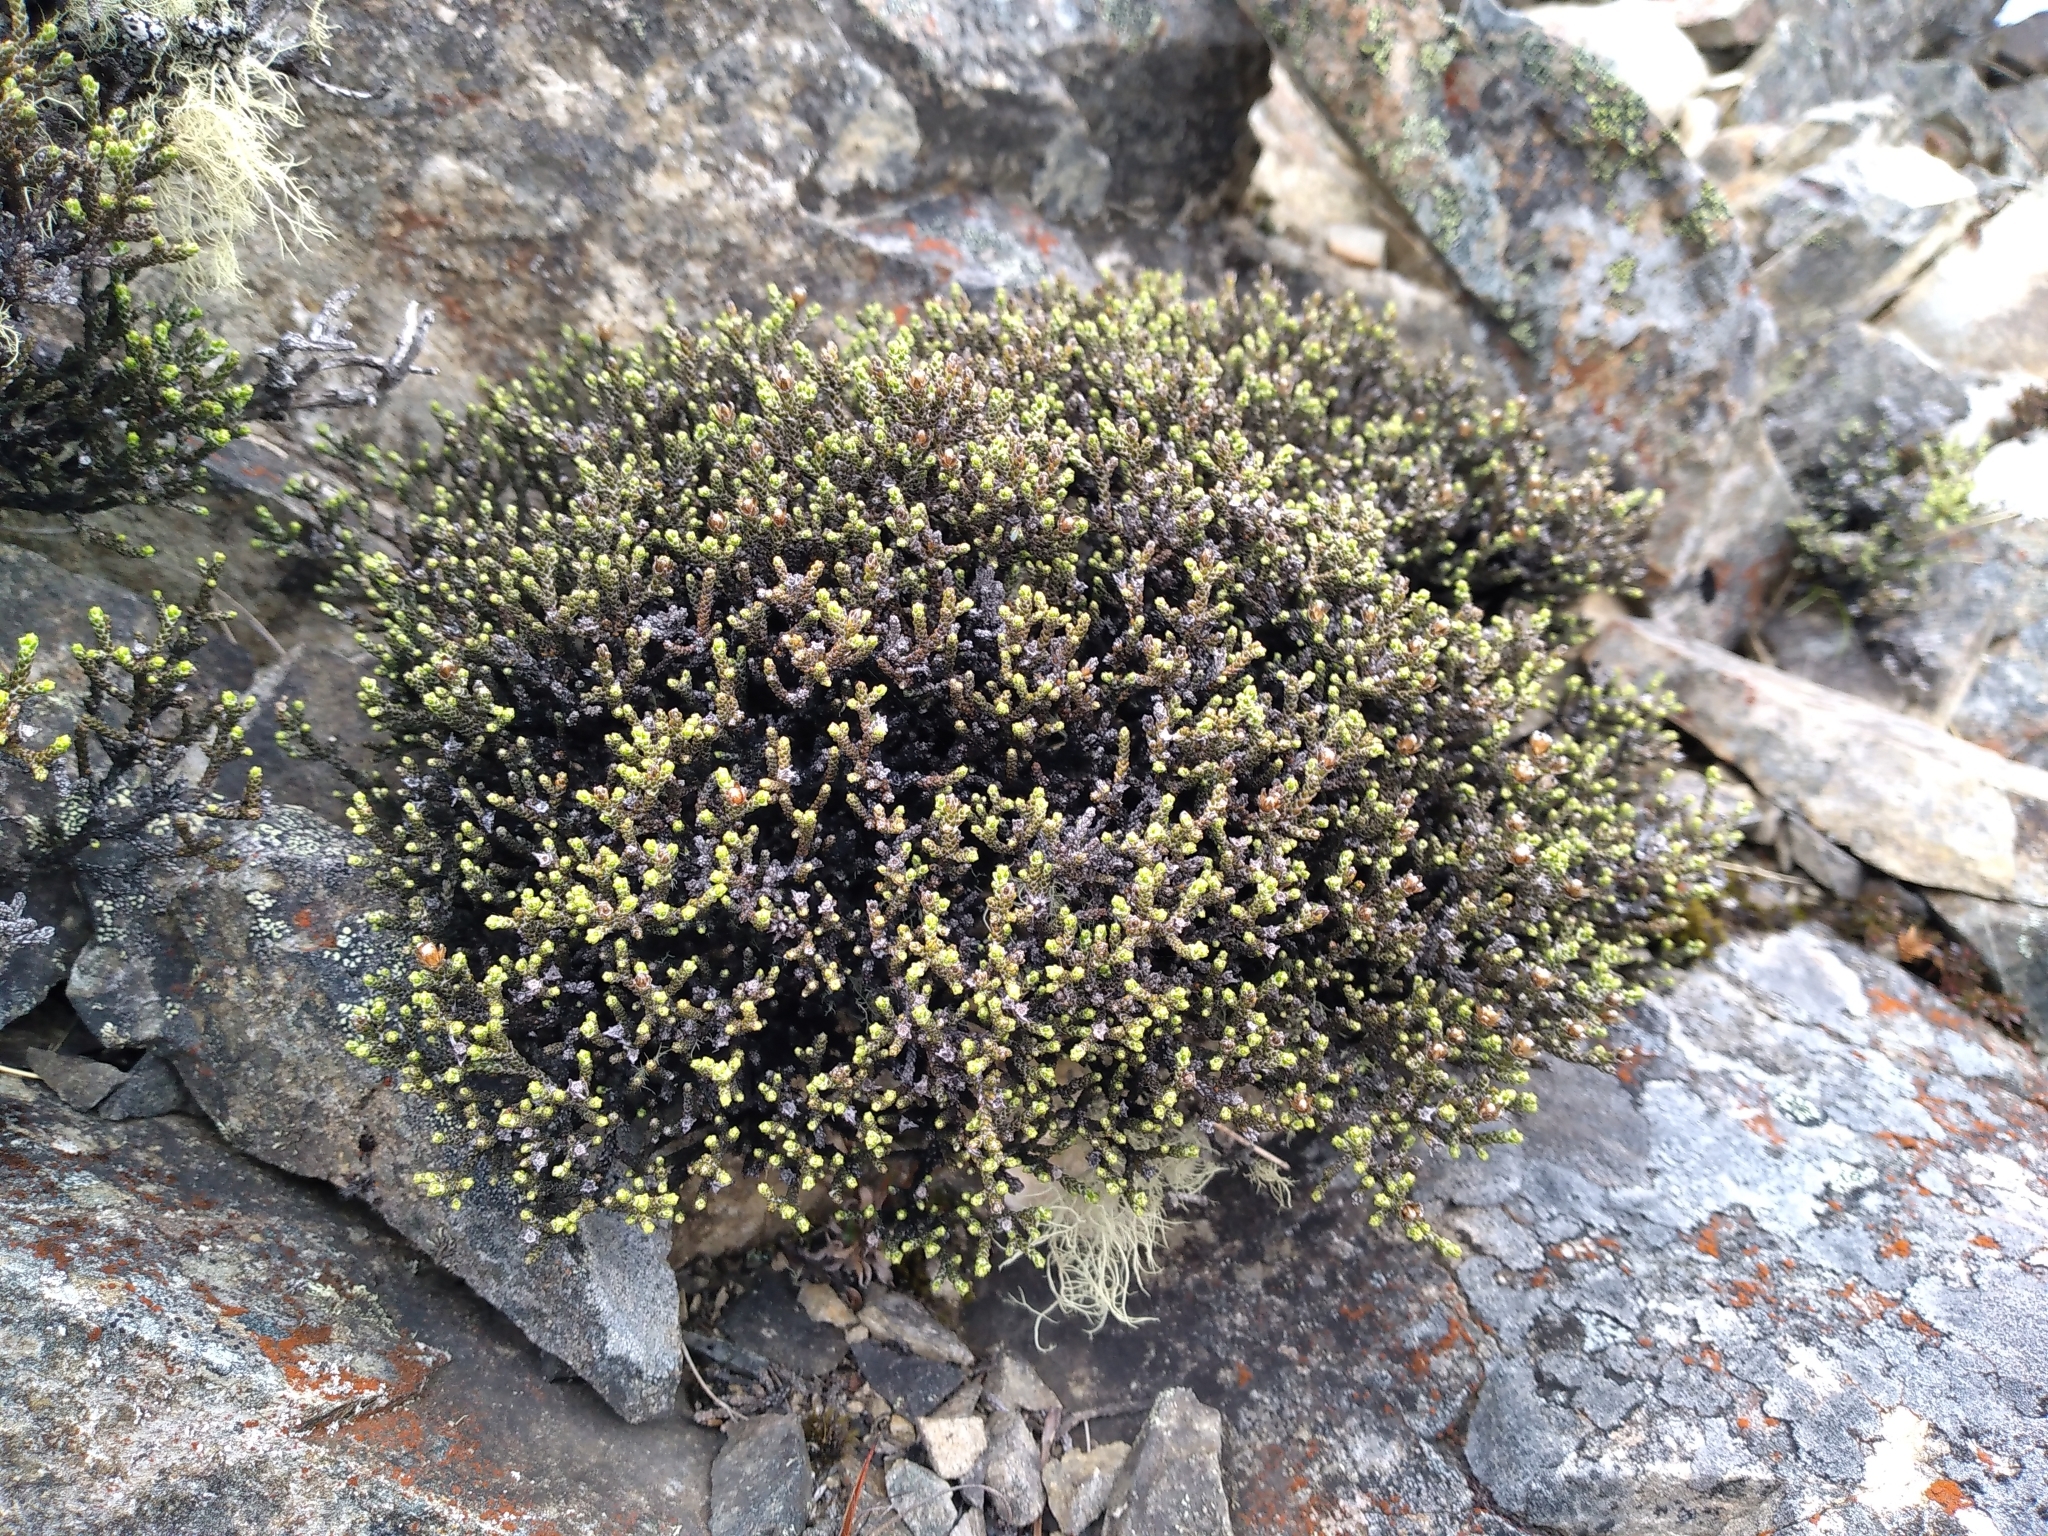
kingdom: Plantae
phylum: Tracheophyta
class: Magnoliopsida
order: Asterales
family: Asteraceae
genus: Ozothamnus
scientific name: Ozothamnus parvifolius
